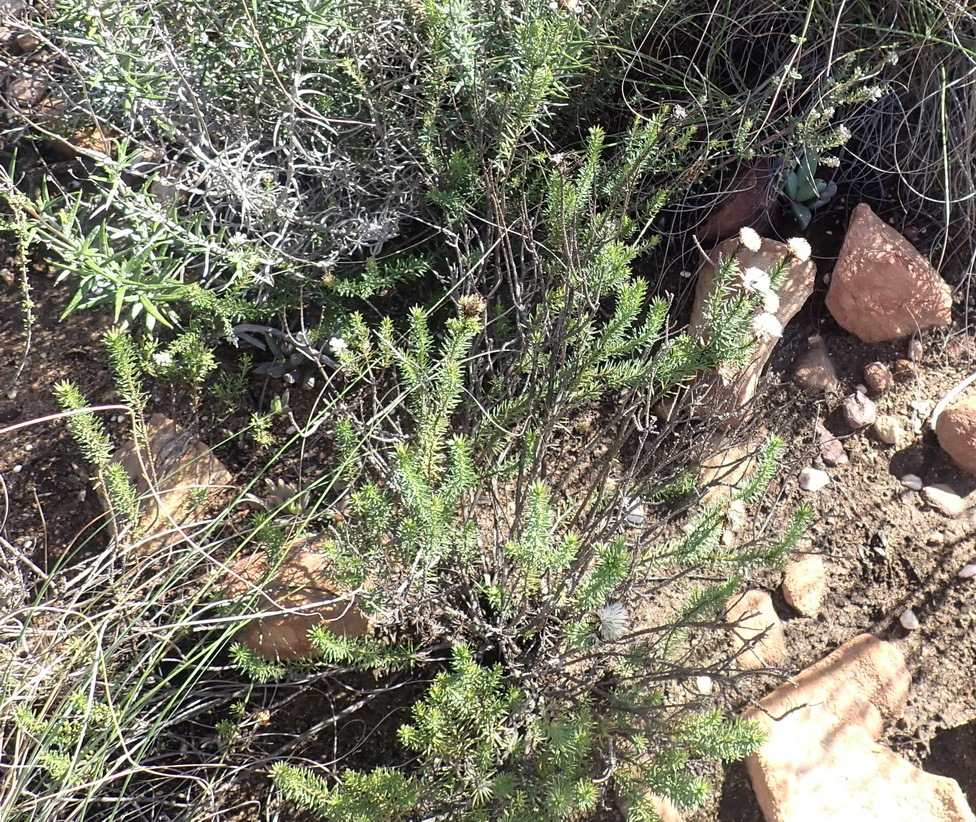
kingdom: Plantae
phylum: Tracheophyta
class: Magnoliopsida
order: Asterales
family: Asteraceae
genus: Senecio
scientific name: Senecio pinifolius
